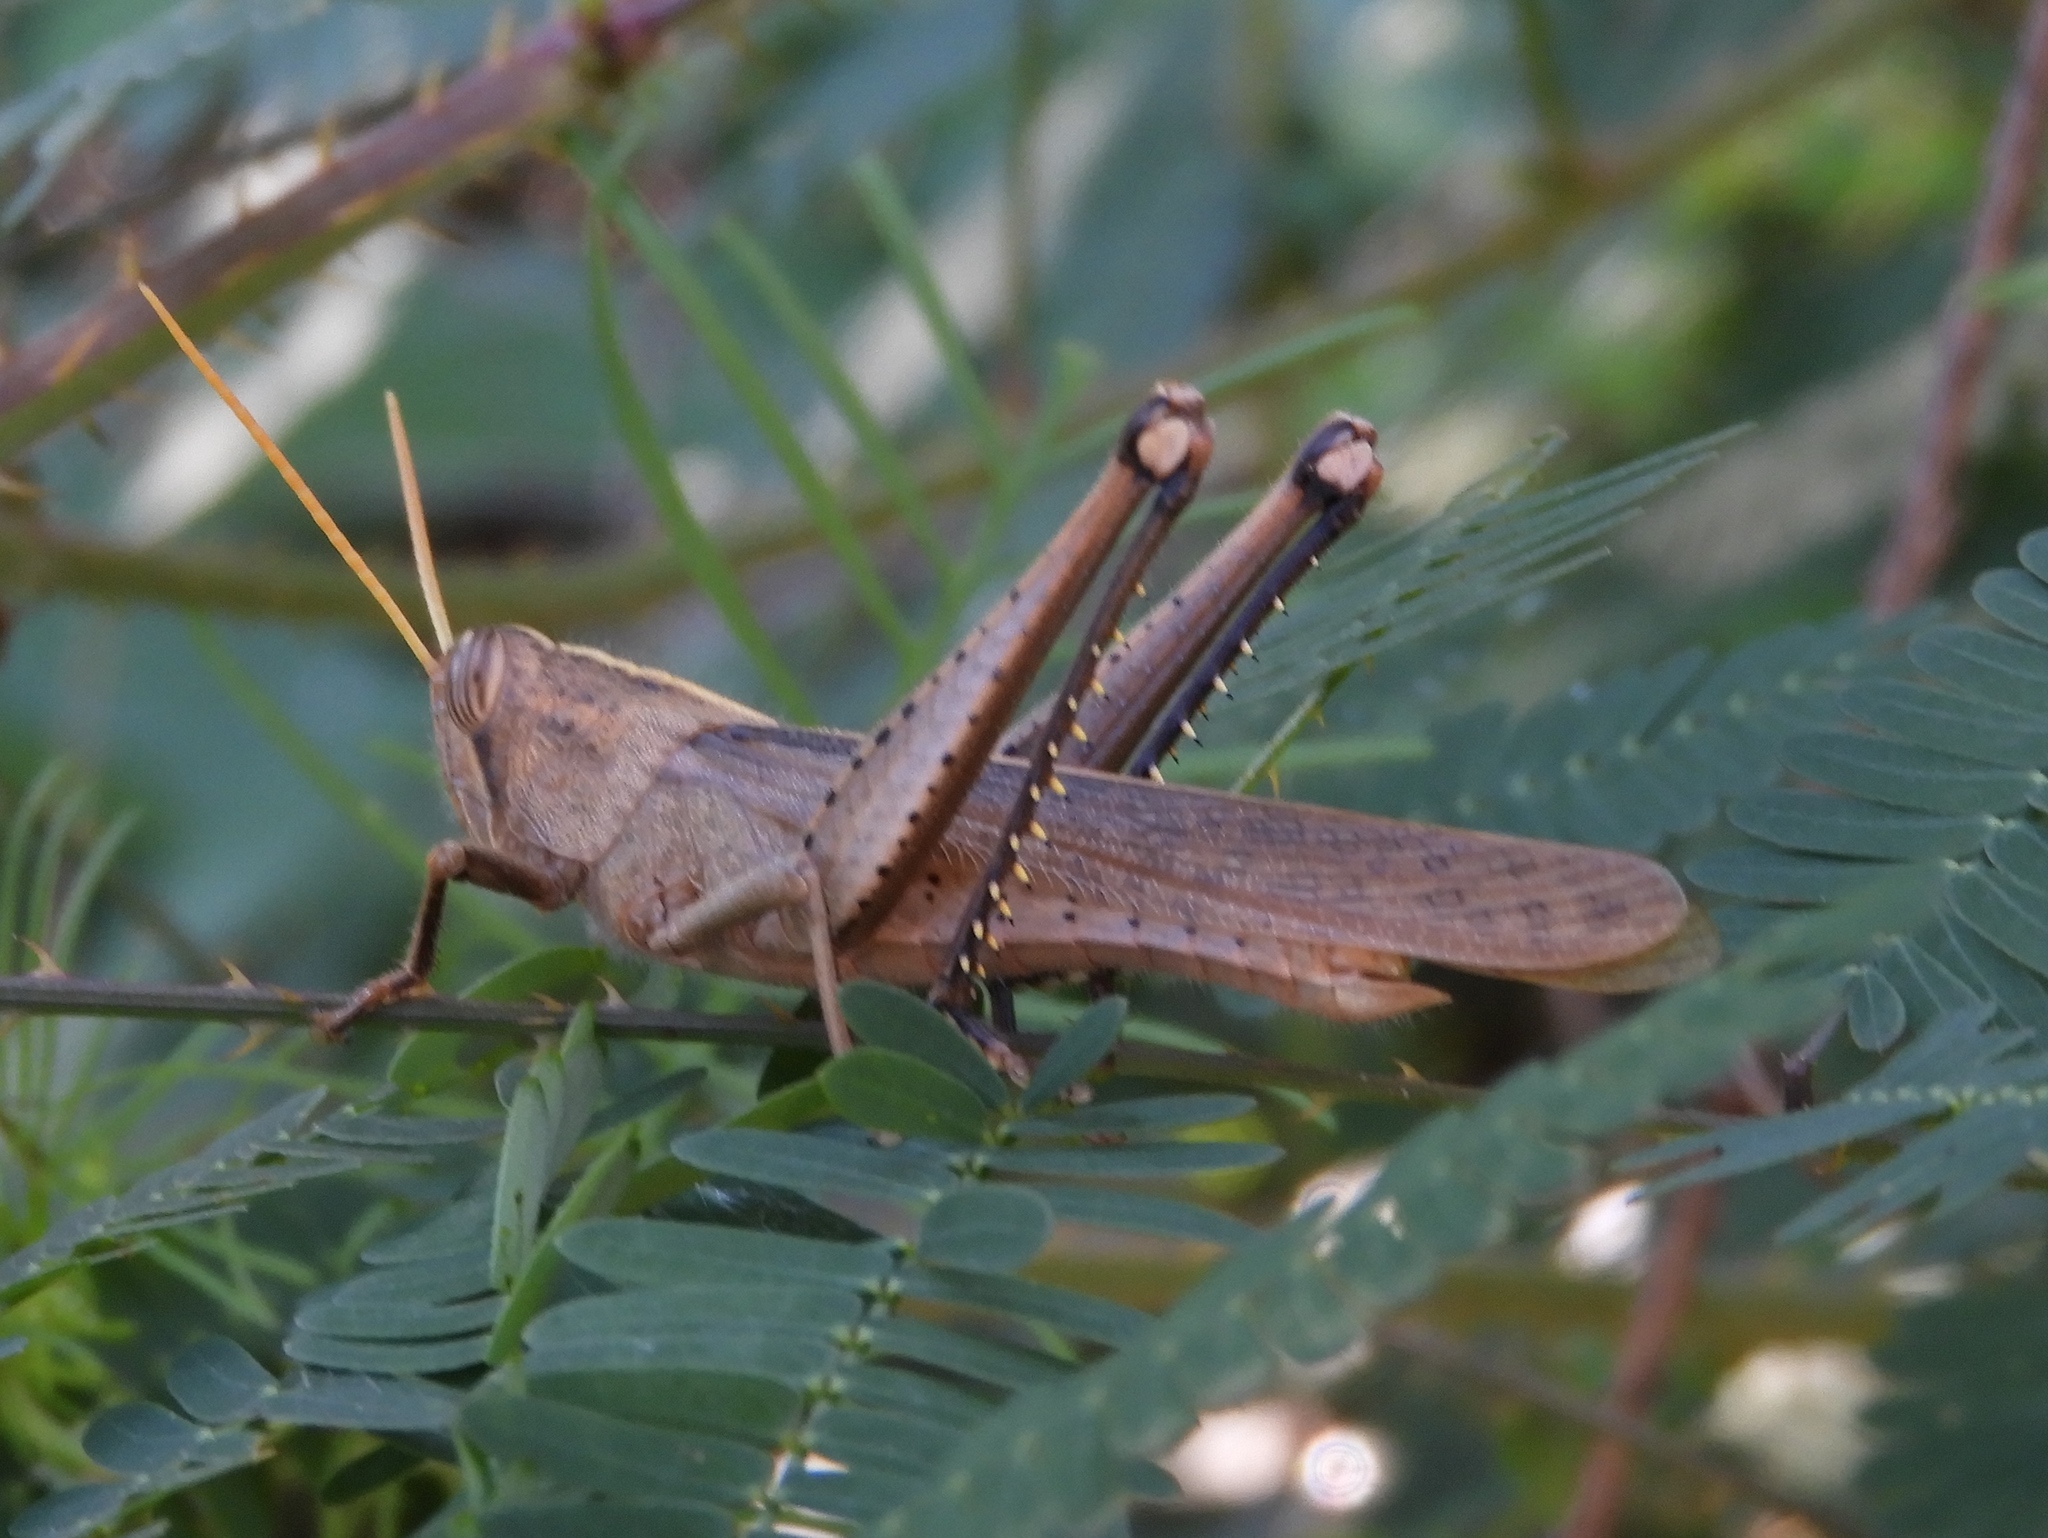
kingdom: Animalia
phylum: Arthropoda
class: Insecta
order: Orthoptera
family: Acrididae
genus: Schistocerca
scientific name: Schistocerca camerata
